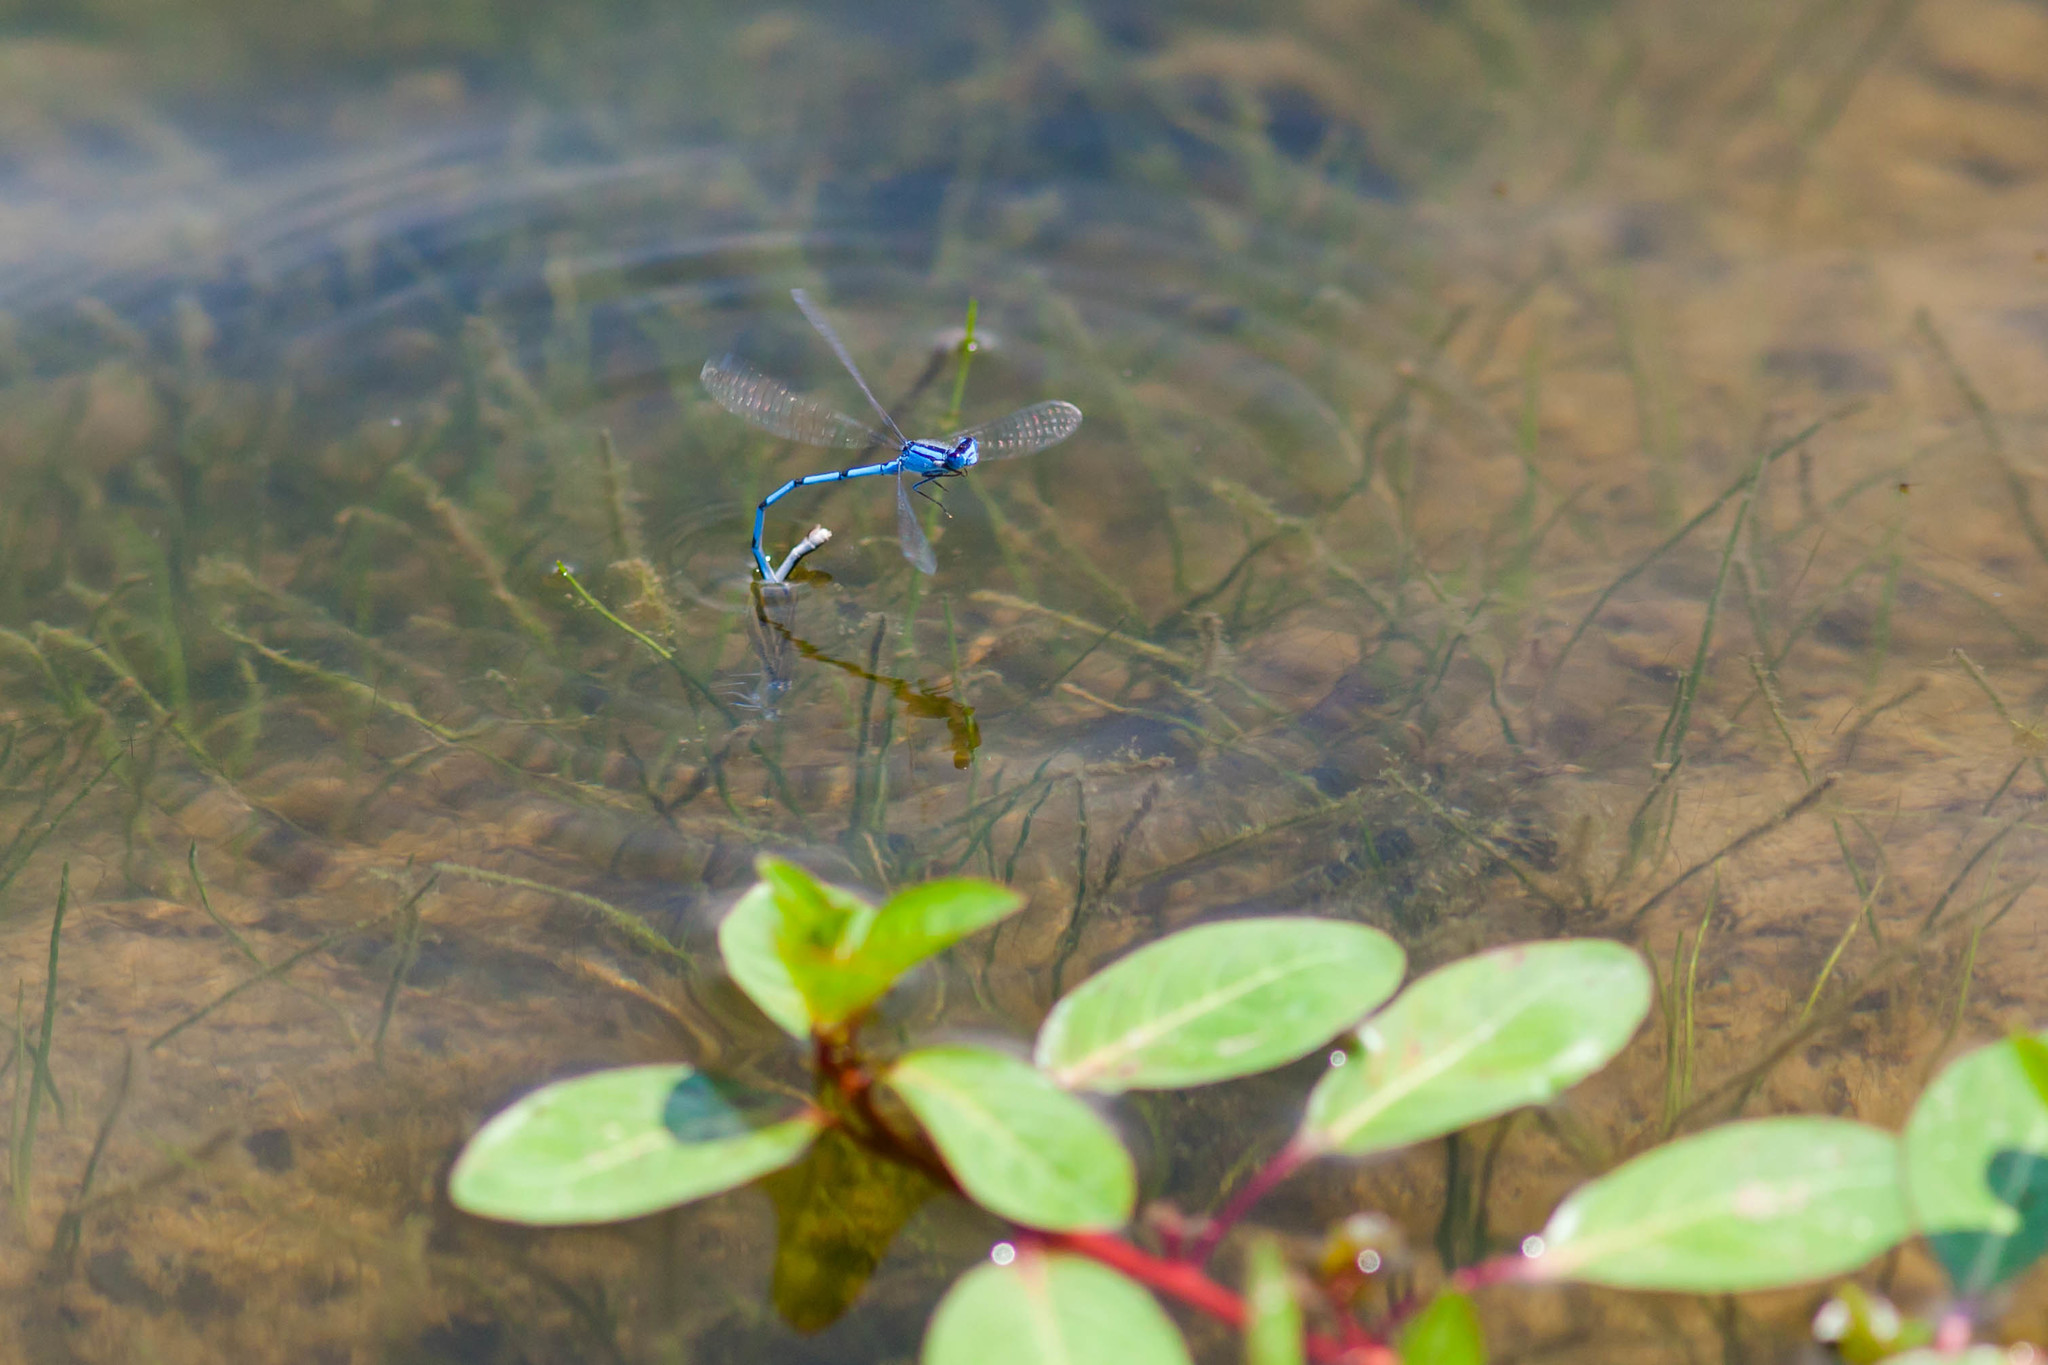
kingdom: Animalia
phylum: Arthropoda
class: Insecta
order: Odonata
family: Coenagrionidae
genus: Enallagma
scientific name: Enallagma civile
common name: Damselfly
